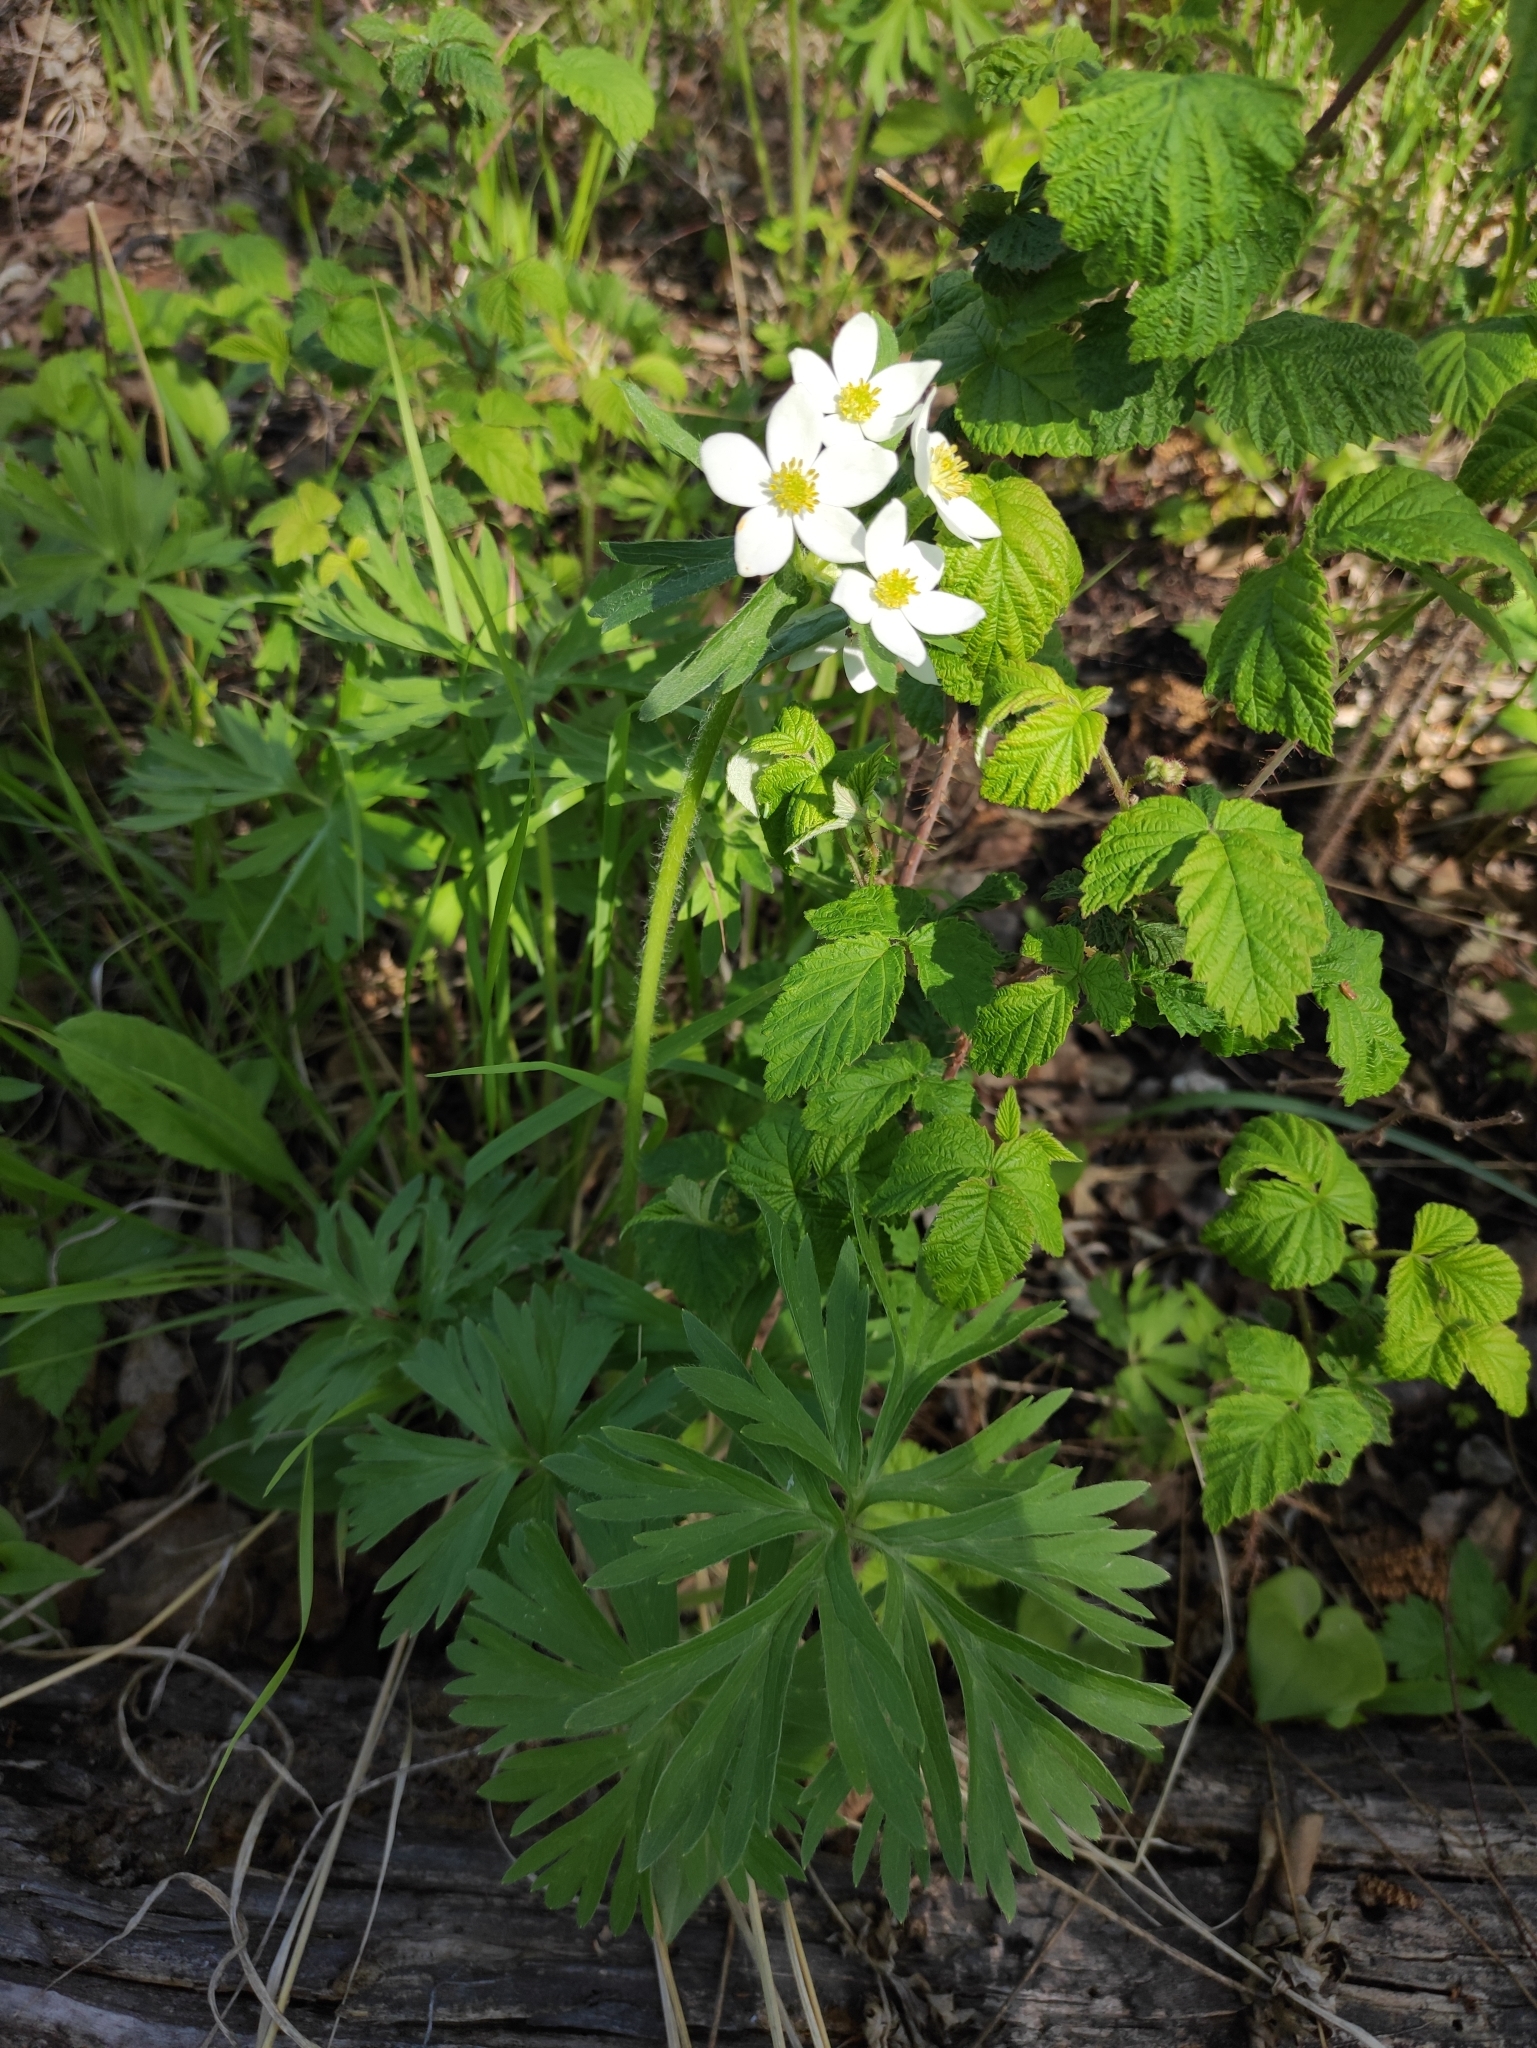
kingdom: Plantae
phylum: Tracheophyta
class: Magnoliopsida
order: Ranunculales
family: Ranunculaceae
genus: Anemonastrum
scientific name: Anemonastrum narcissiflorum
